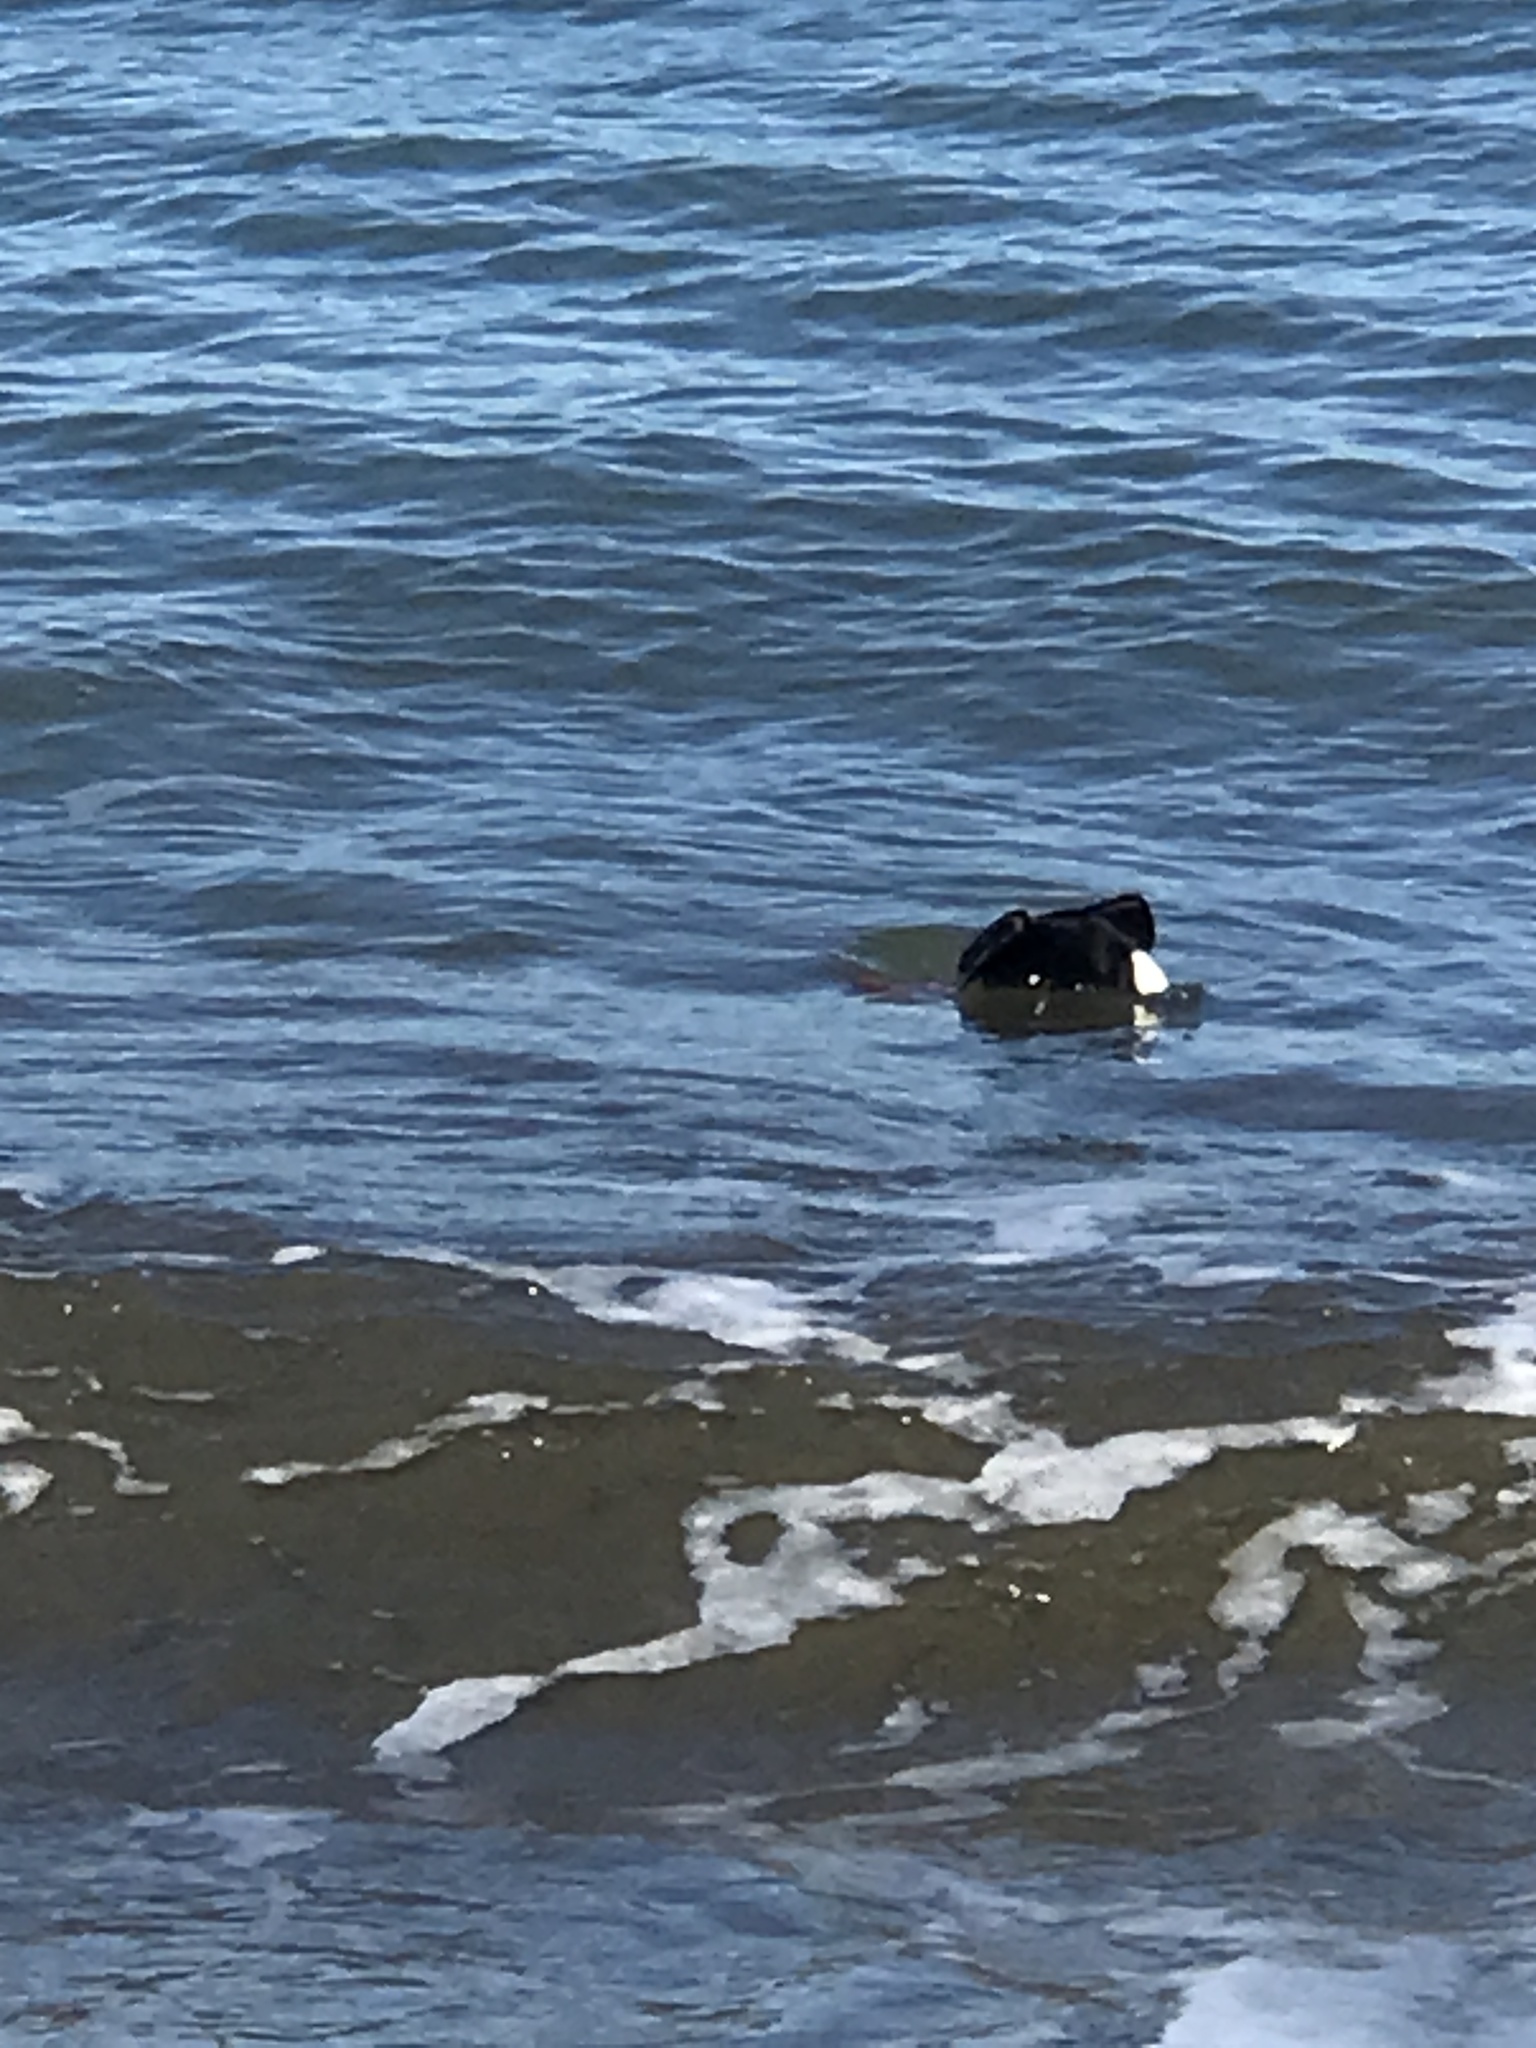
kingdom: Animalia
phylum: Chordata
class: Aves
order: Anseriformes
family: Anatidae
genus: Melanitta
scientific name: Melanitta perspicillata
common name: Surf scoter
